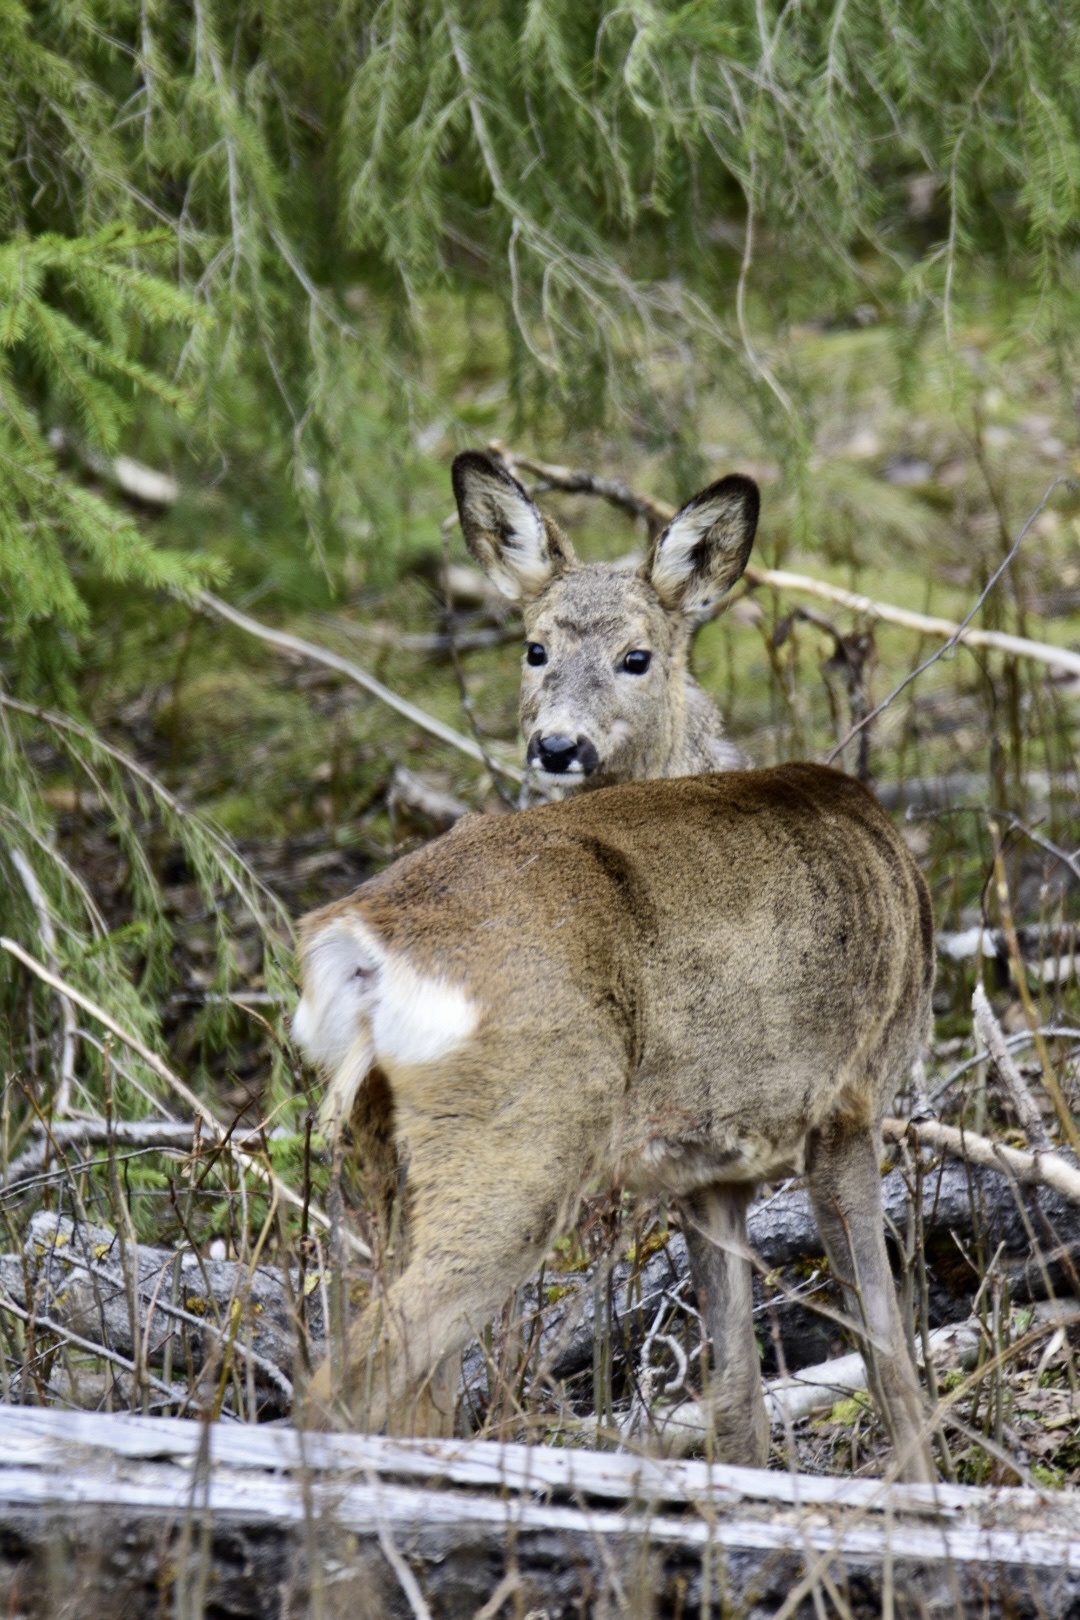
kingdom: Animalia
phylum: Chordata
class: Mammalia
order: Artiodactyla
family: Cervidae
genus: Capreolus
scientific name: Capreolus capreolus
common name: Western roe deer
